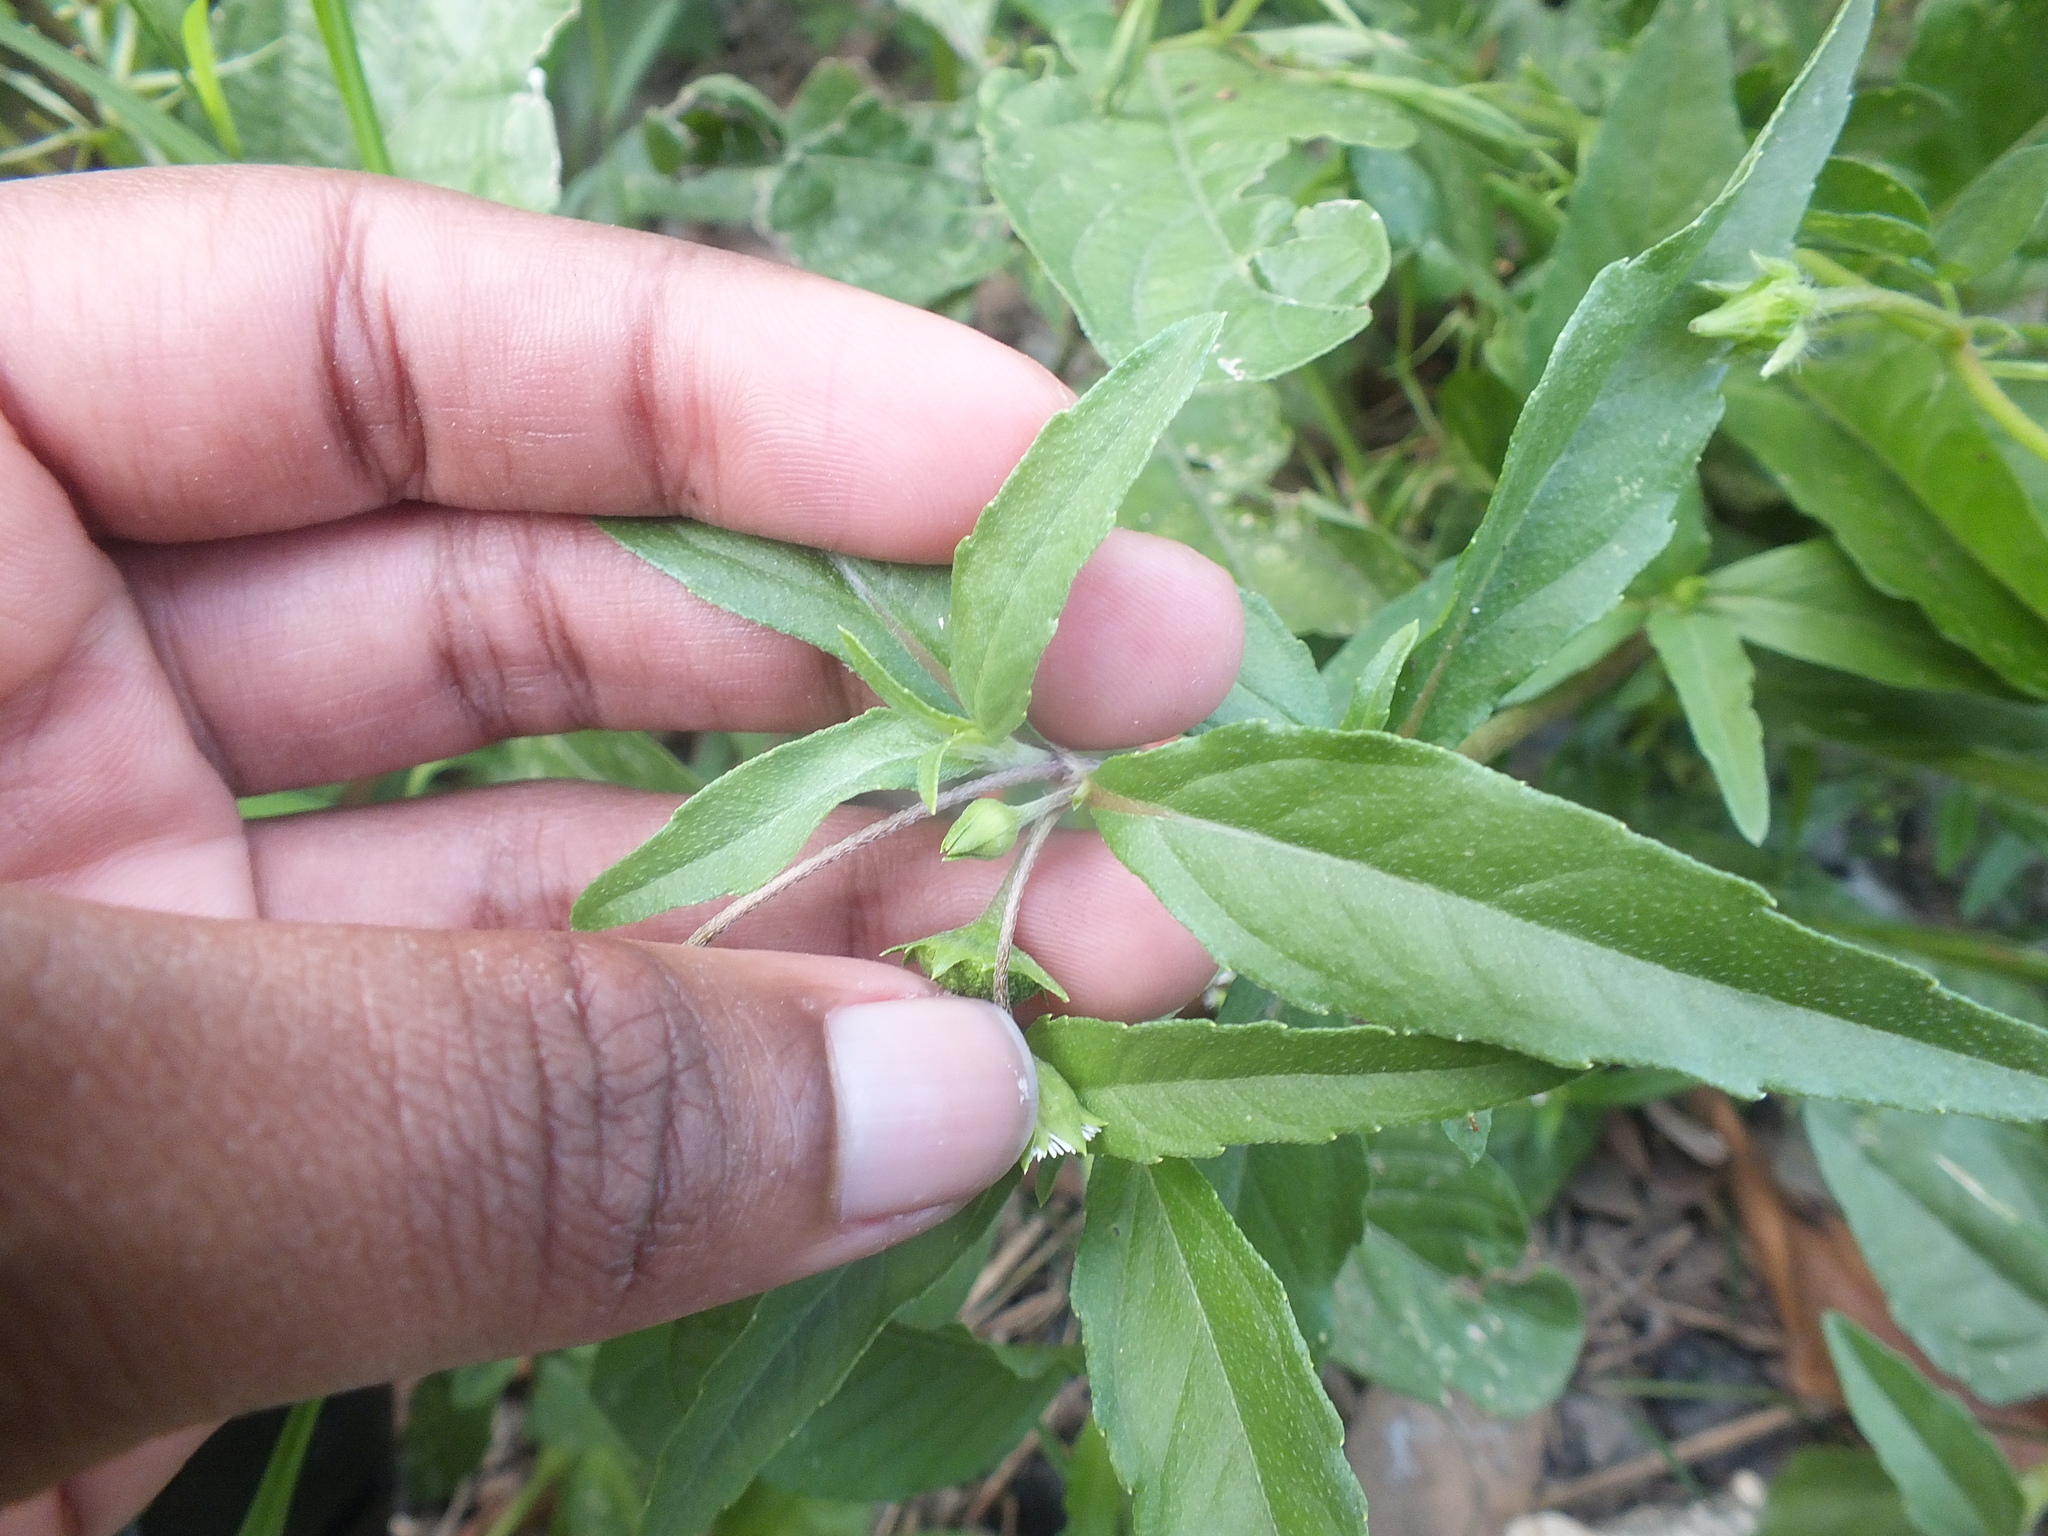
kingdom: Plantae
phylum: Tracheophyta
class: Magnoliopsida
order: Asterales
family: Asteraceae
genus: Eclipta
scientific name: Eclipta prostrata
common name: False daisy
